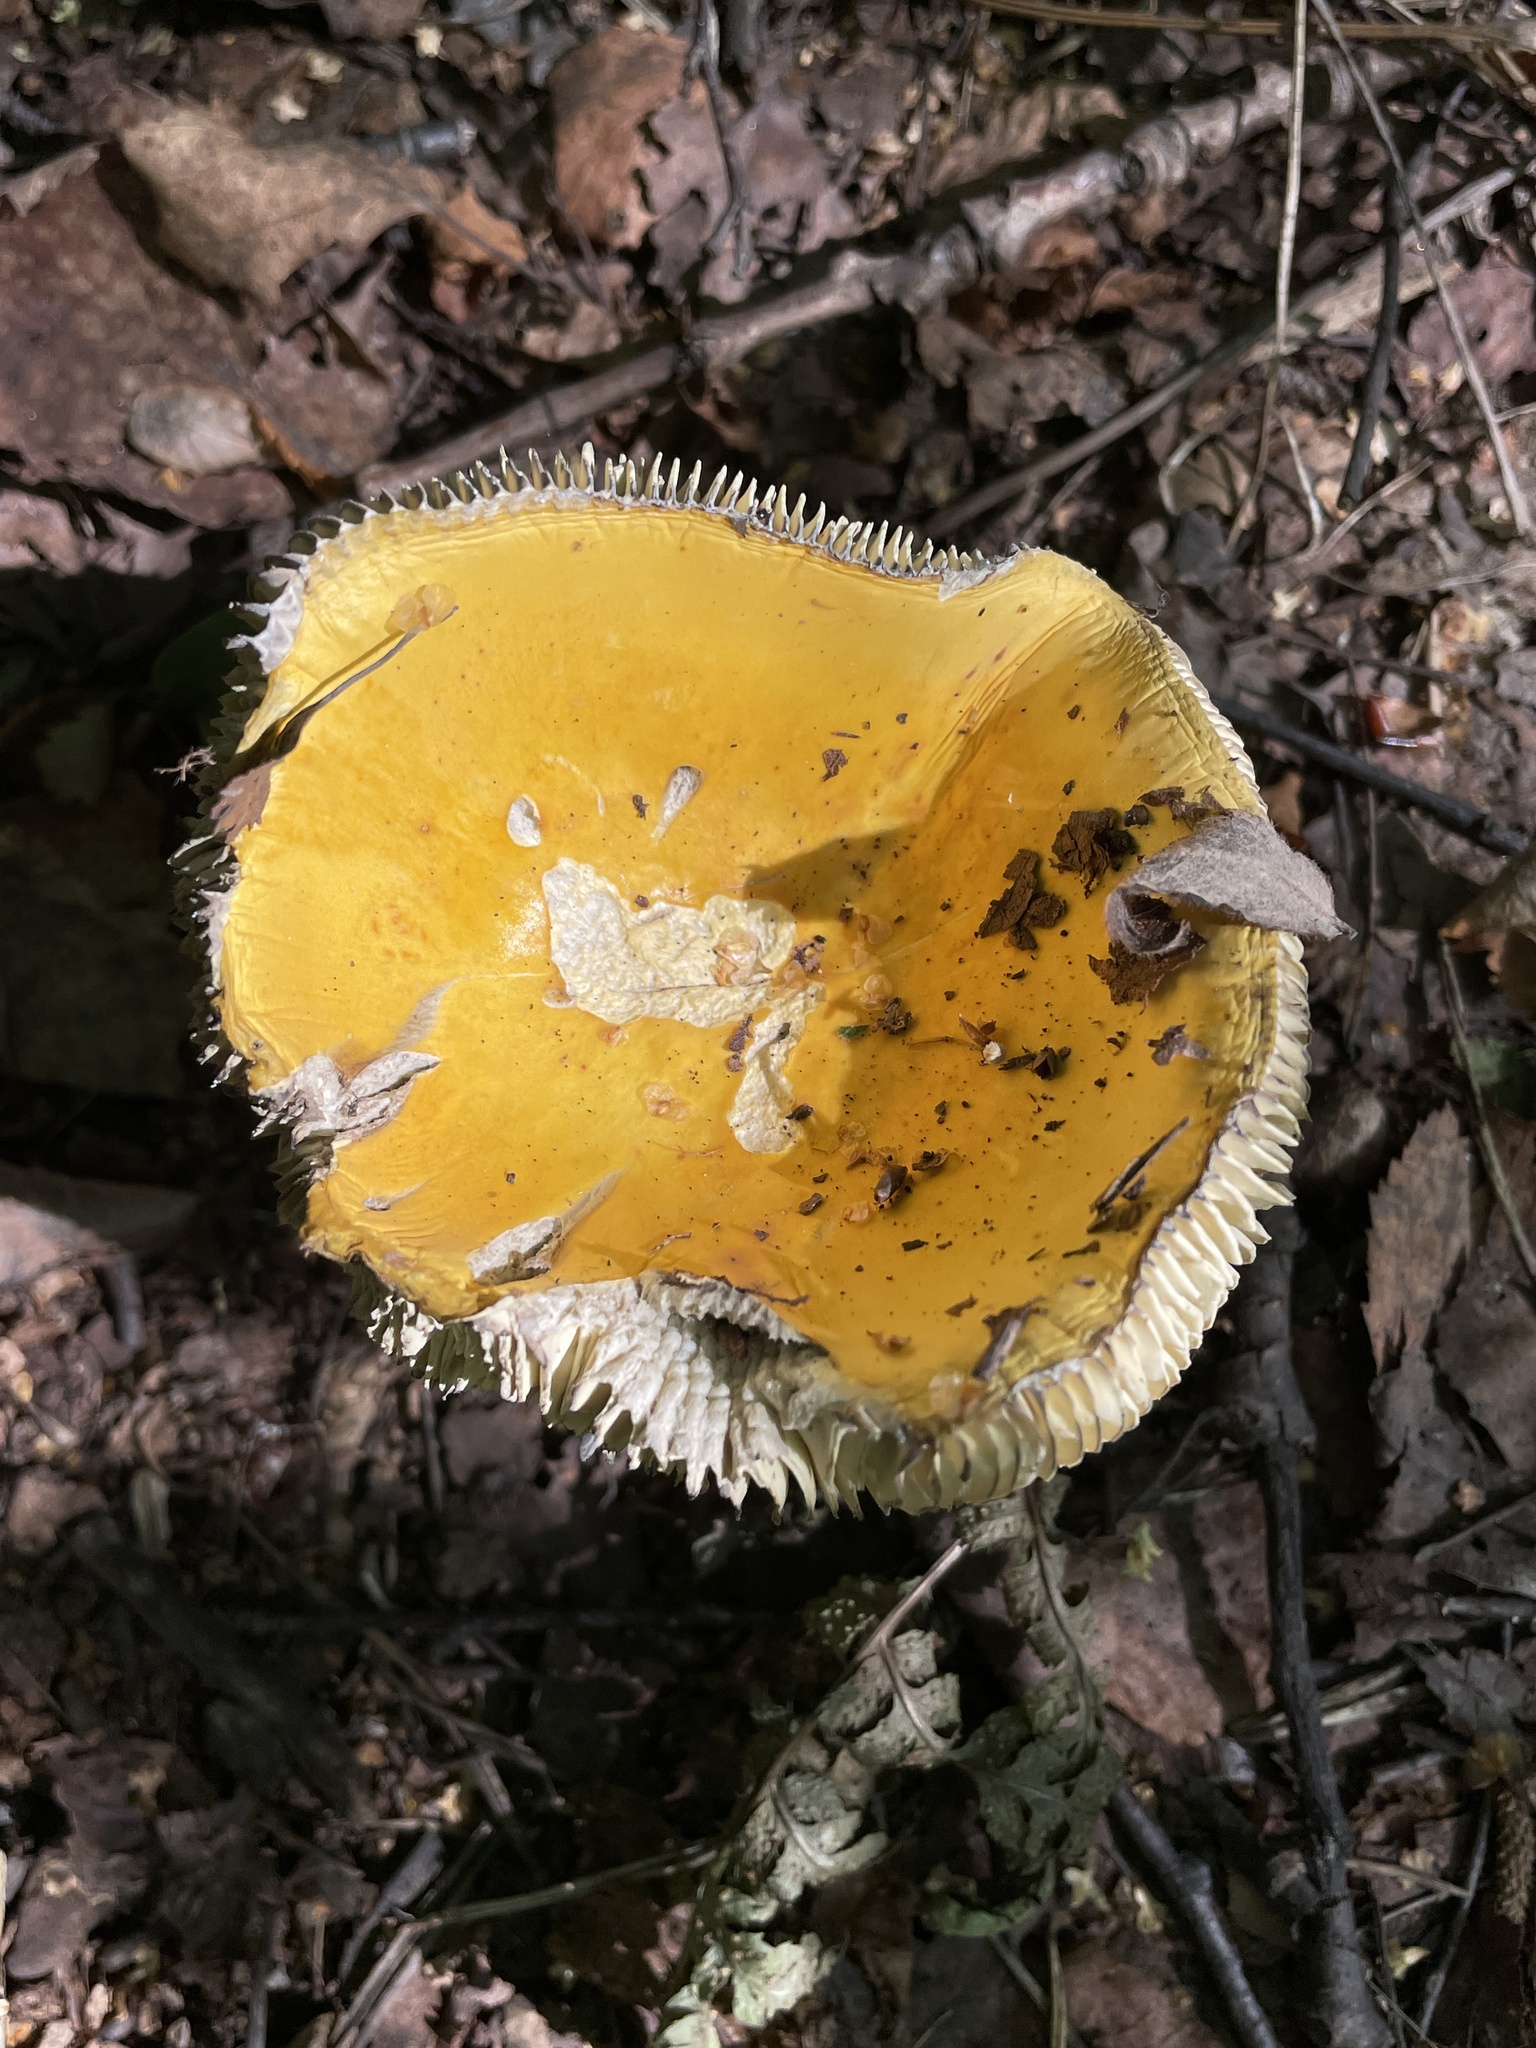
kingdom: Fungi
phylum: Basidiomycota
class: Agaricomycetes
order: Russulales
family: Russulaceae
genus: Russula
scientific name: Russula claroflava
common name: The yellow swamp brittlegill
